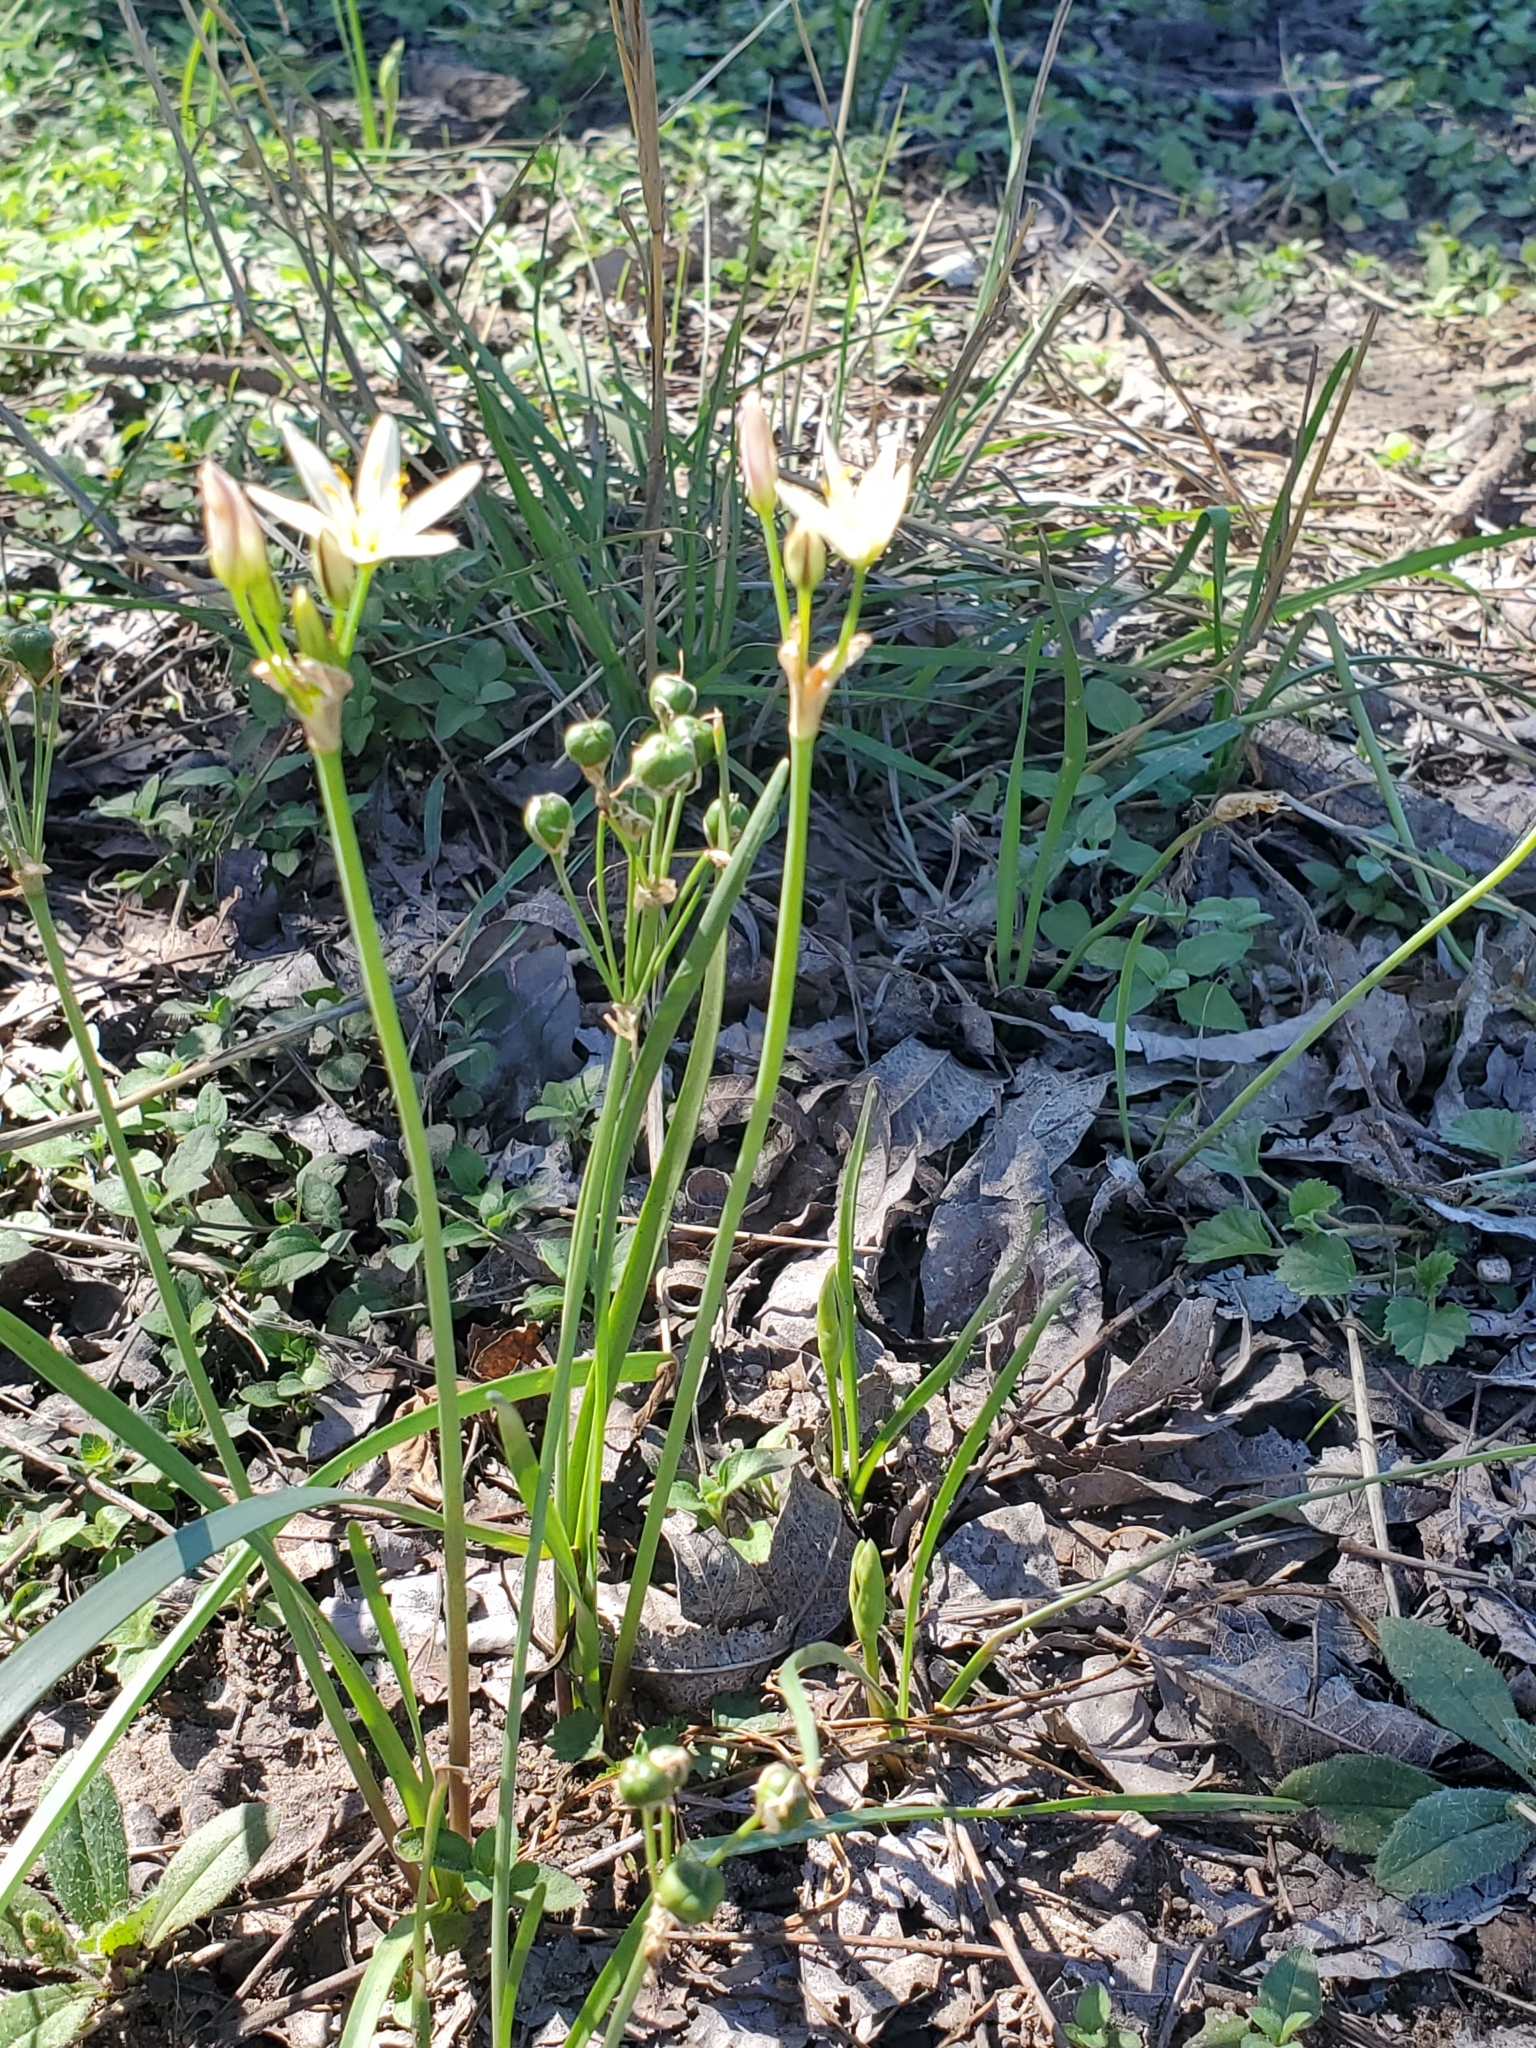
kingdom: Plantae
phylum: Tracheophyta
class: Liliopsida
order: Asparagales
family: Amaryllidaceae
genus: Nothoscordum
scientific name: Nothoscordum bivalve
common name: Crow-poison
